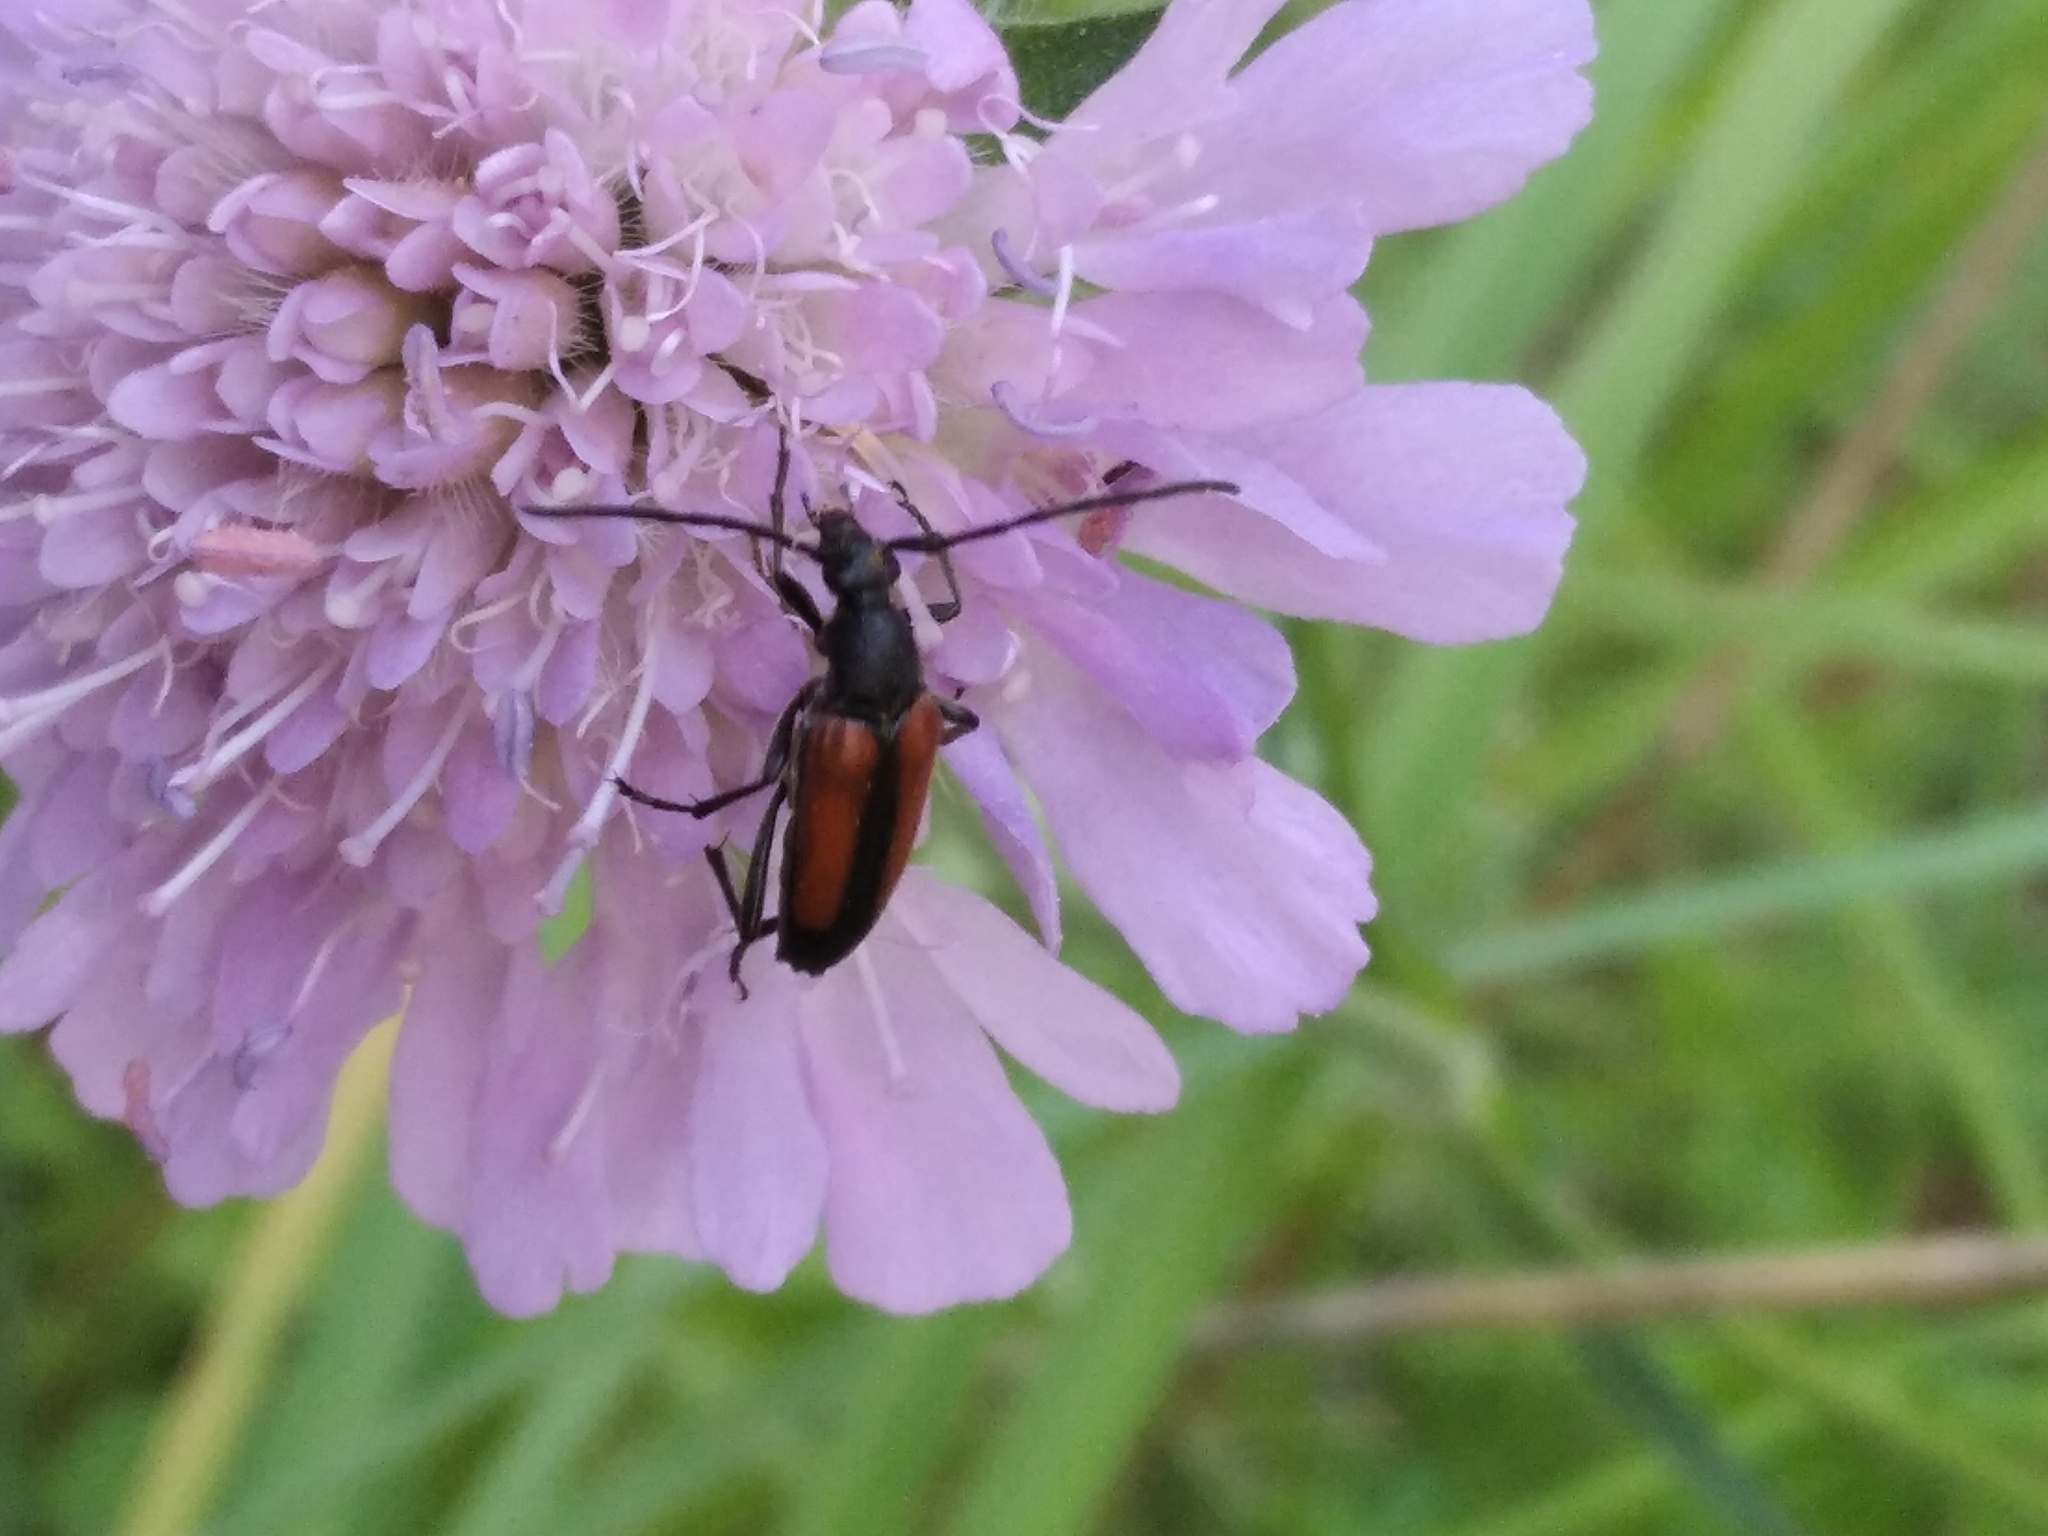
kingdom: Animalia
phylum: Arthropoda
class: Insecta
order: Coleoptera
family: Cerambycidae
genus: Stenurella
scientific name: Stenurella melanura
